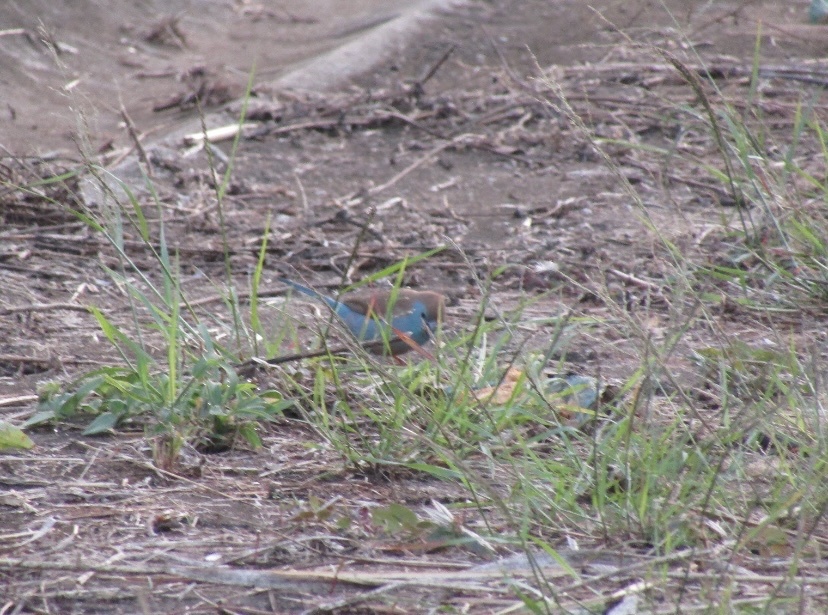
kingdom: Animalia
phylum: Chordata
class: Aves
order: Passeriformes
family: Estrildidae
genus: Uraeginthus
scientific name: Uraeginthus angolensis
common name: Blue waxbill
